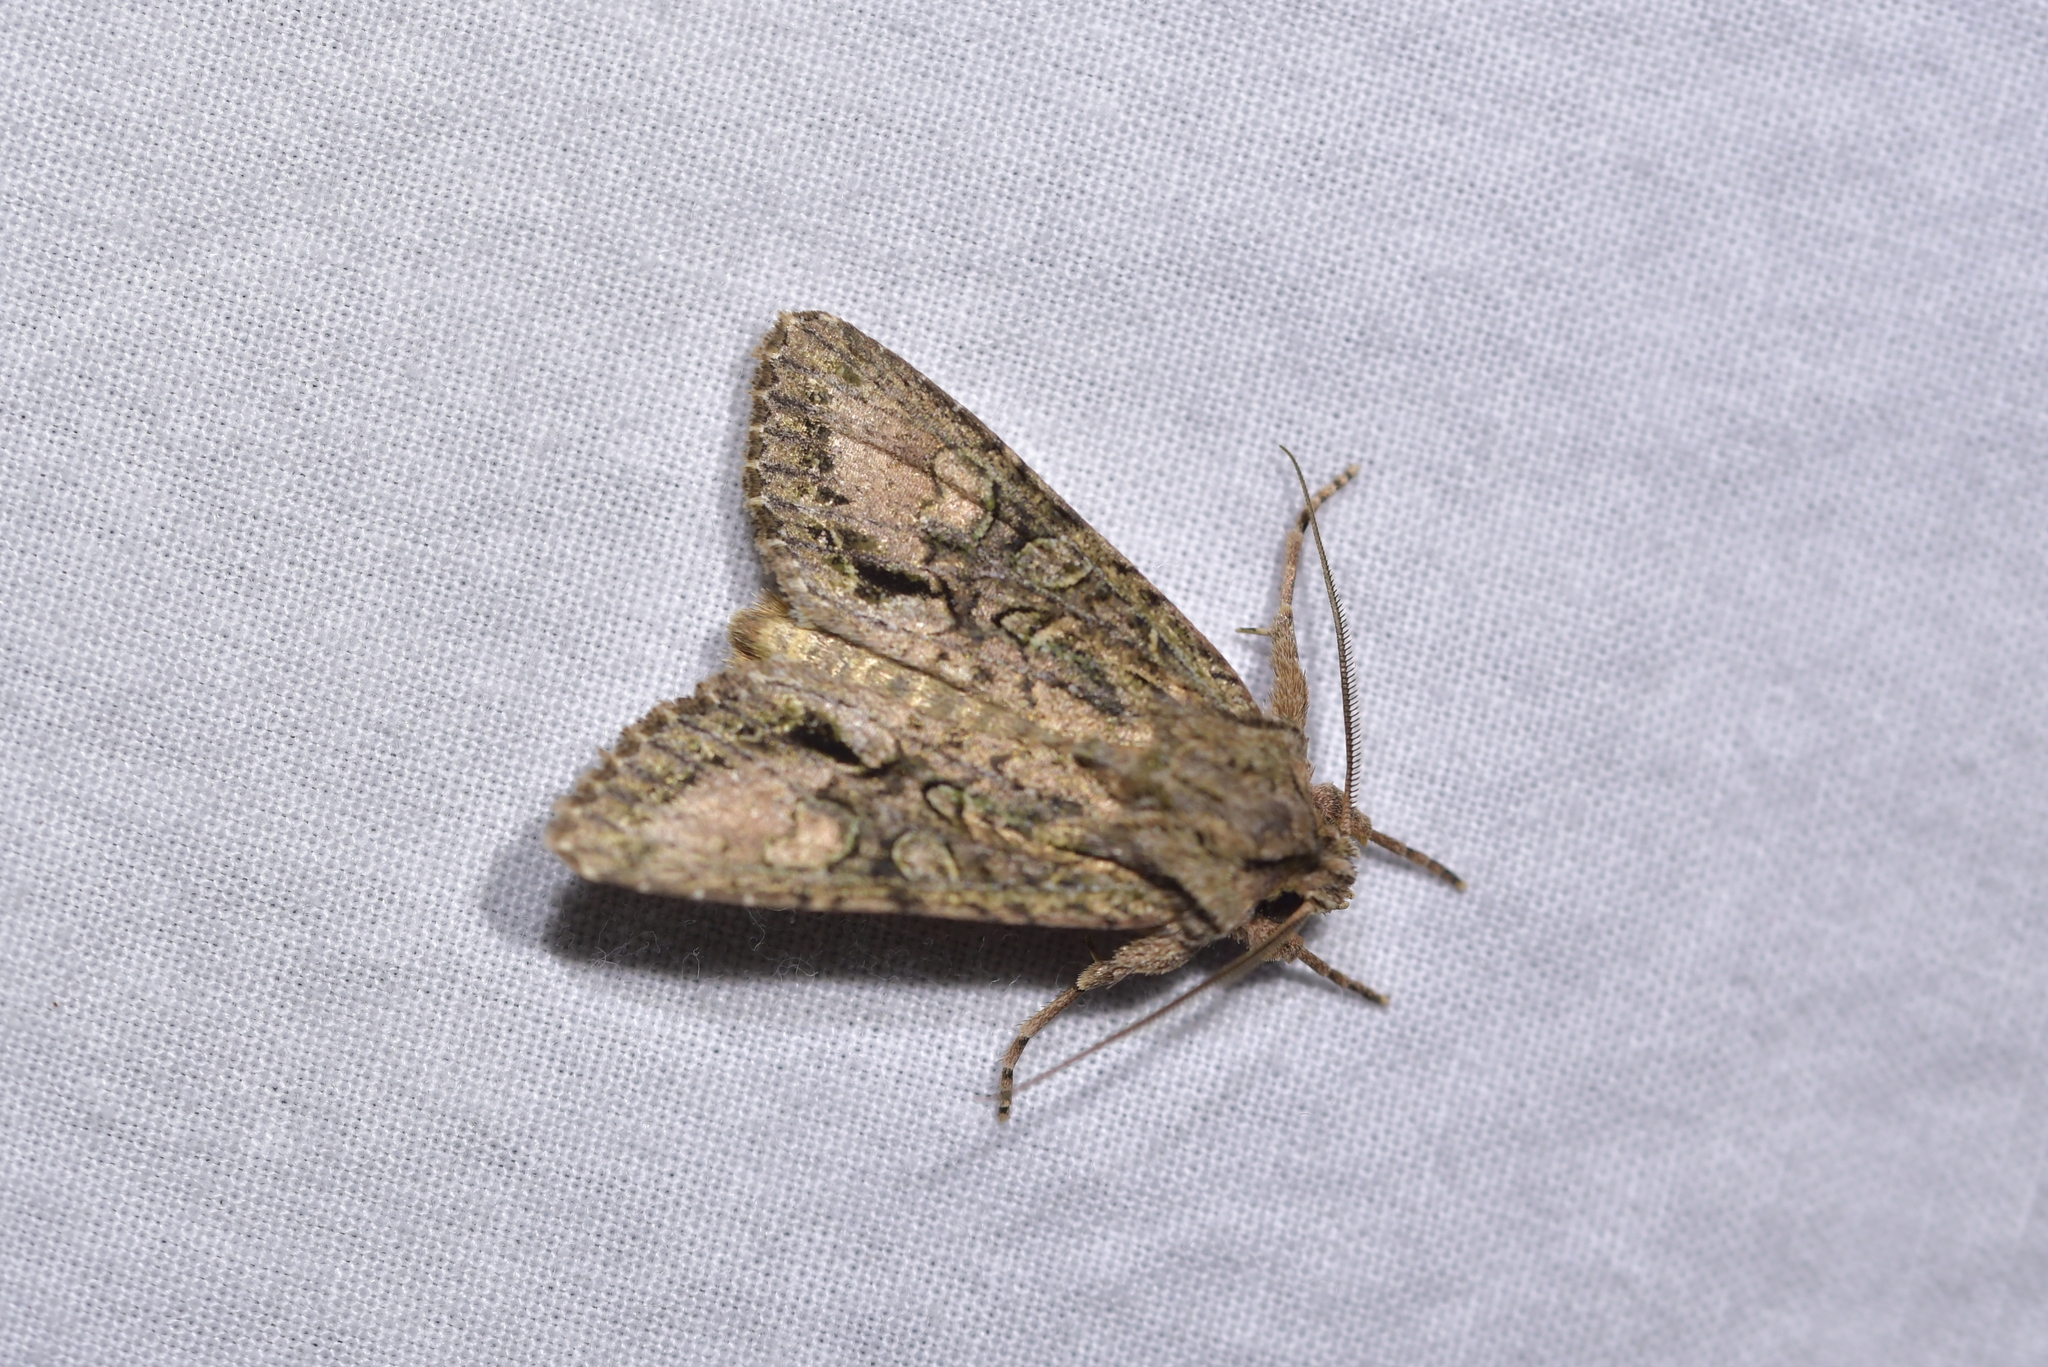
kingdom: Animalia
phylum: Arthropoda
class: Insecta
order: Lepidoptera
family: Noctuidae
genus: Ichneutica
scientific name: Ichneutica mutans
